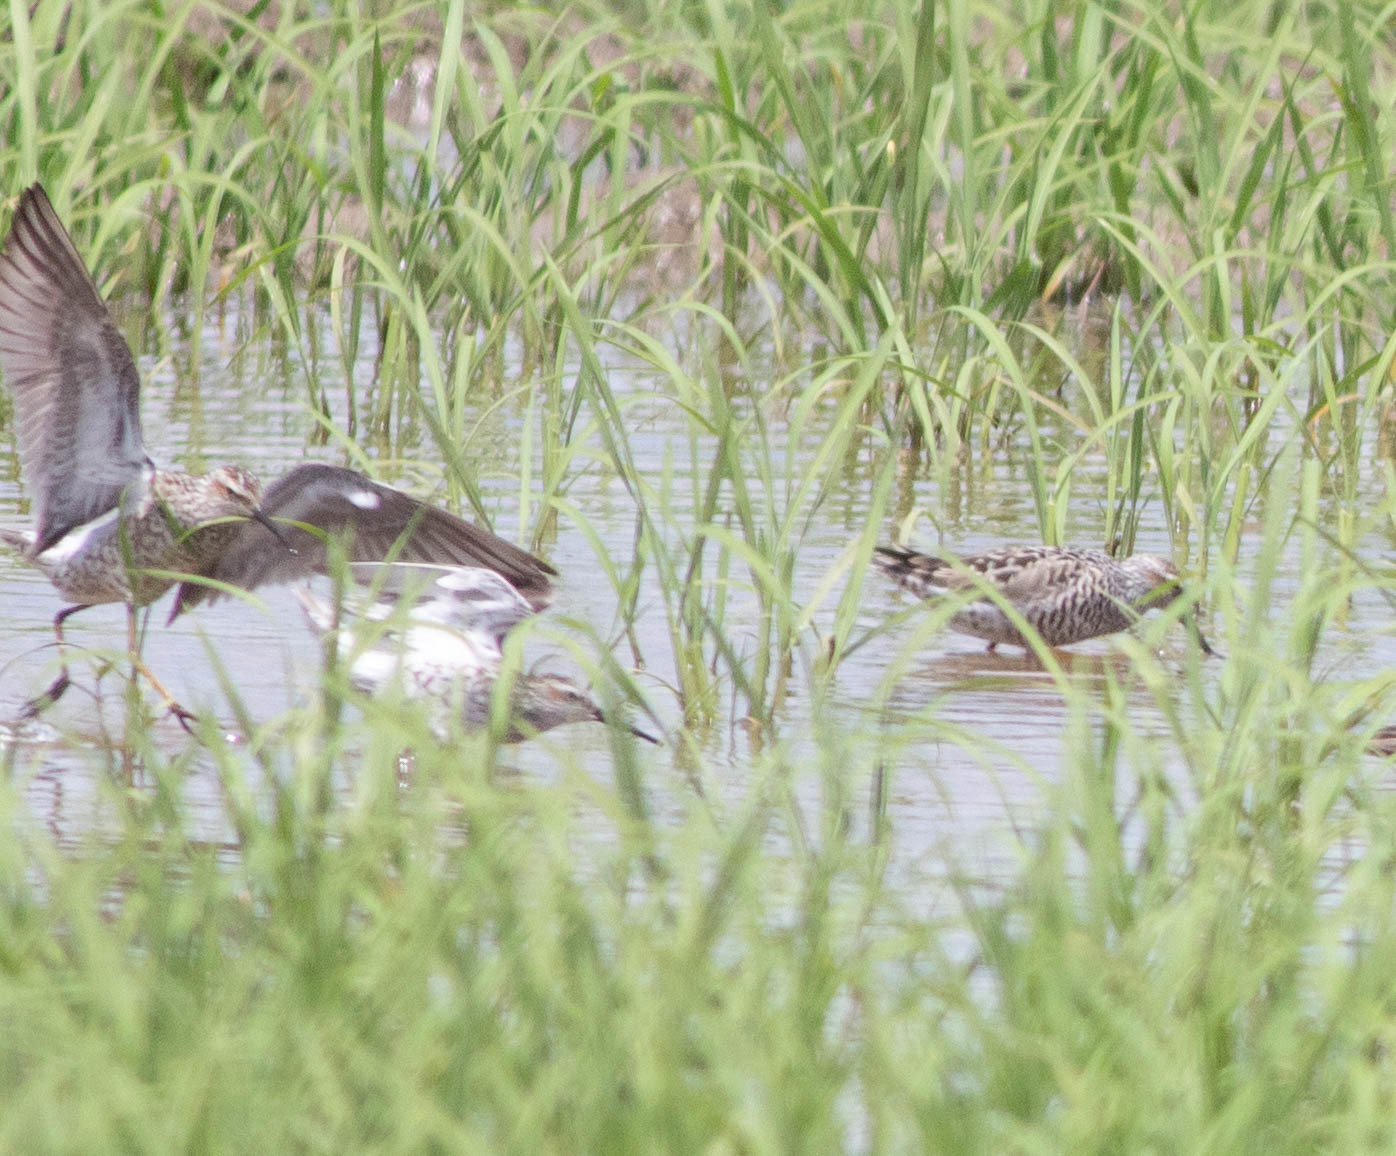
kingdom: Animalia
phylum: Chordata
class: Aves
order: Charadriiformes
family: Scolopacidae
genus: Calidris
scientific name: Calidris himantopus
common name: Stilt sandpiper
